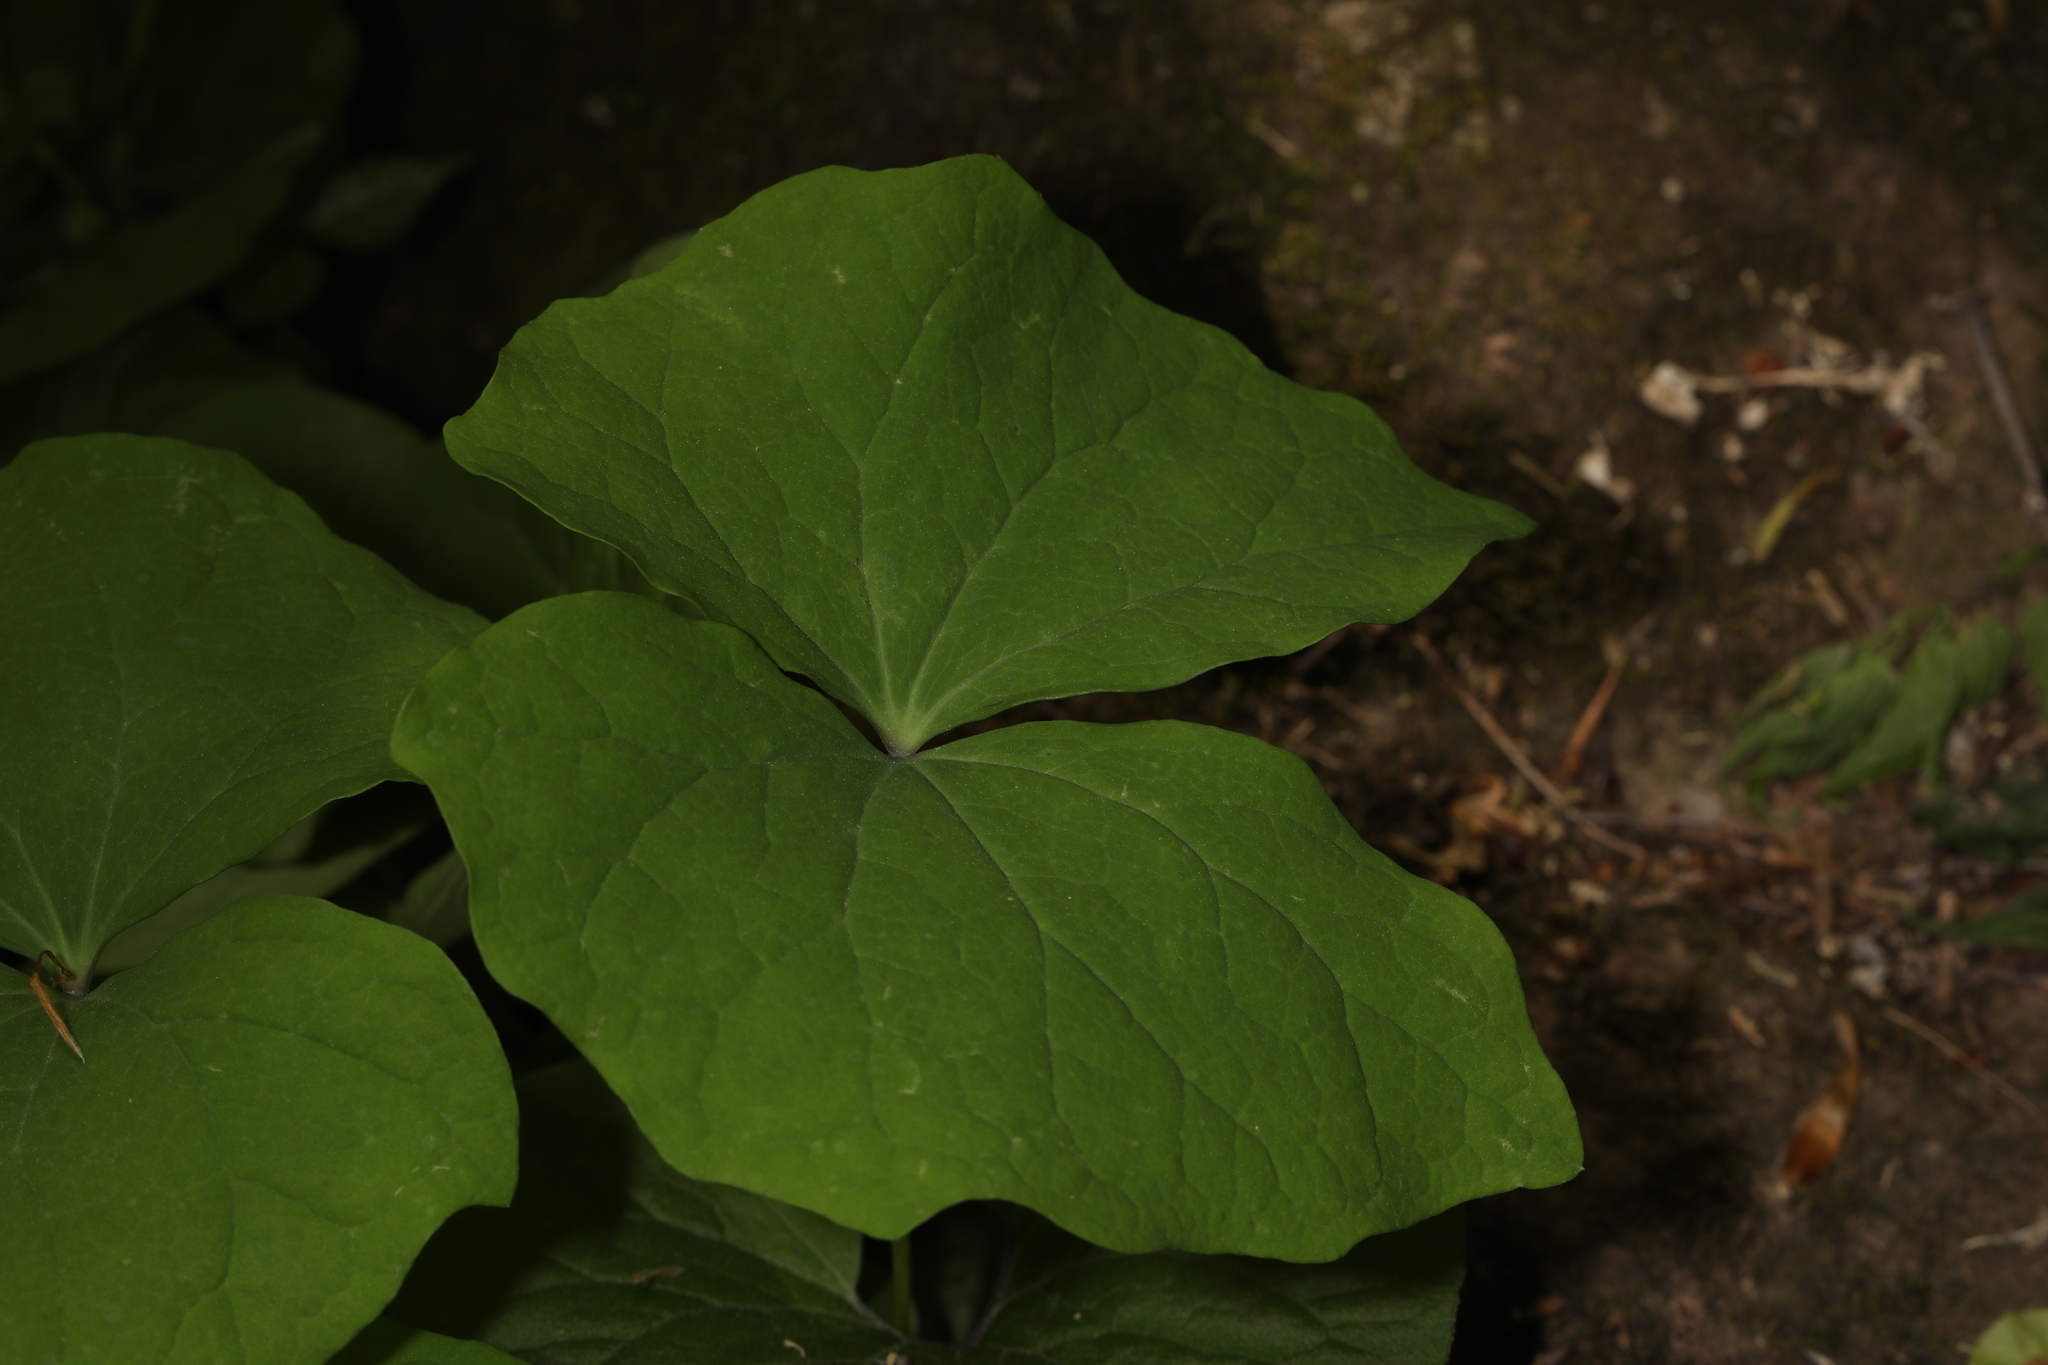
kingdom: Plantae
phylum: Tracheophyta
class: Magnoliopsida
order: Ranunculales
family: Berberidaceae
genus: Jeffersonia
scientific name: Jeffersonia diphylla
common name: Rheumatism-root
